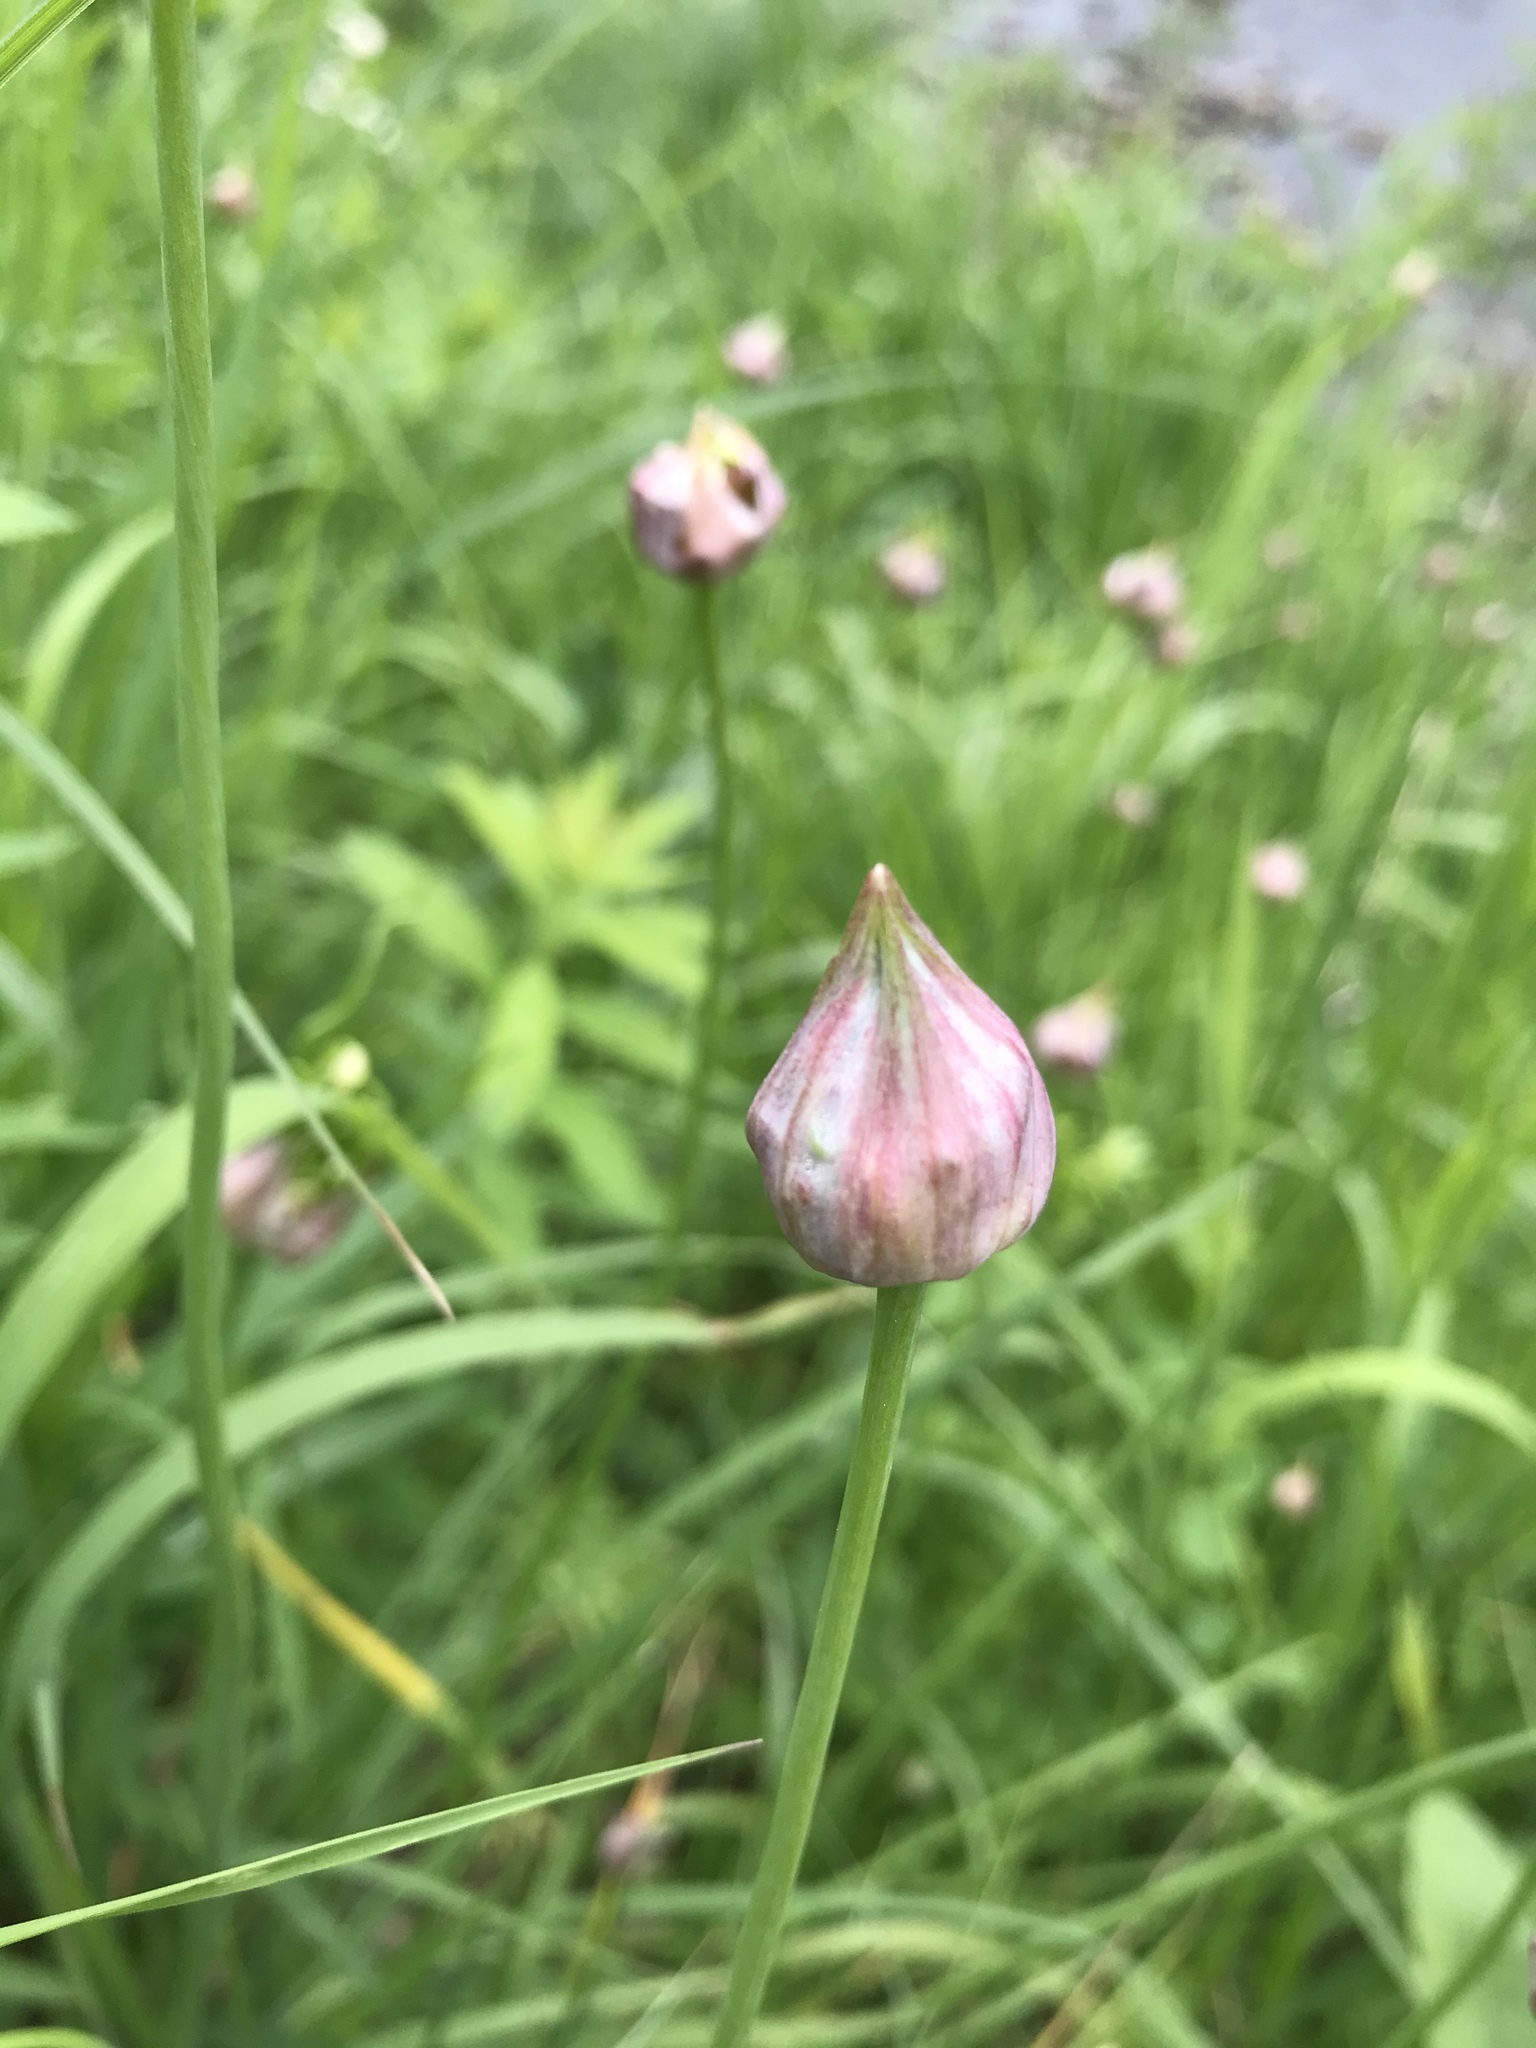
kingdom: Plantae
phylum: Tracheophyta
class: Liliopsida
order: Asparagales
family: Amaryllidaceae
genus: Allium
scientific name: Allium canadense
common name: Meadow garlic
